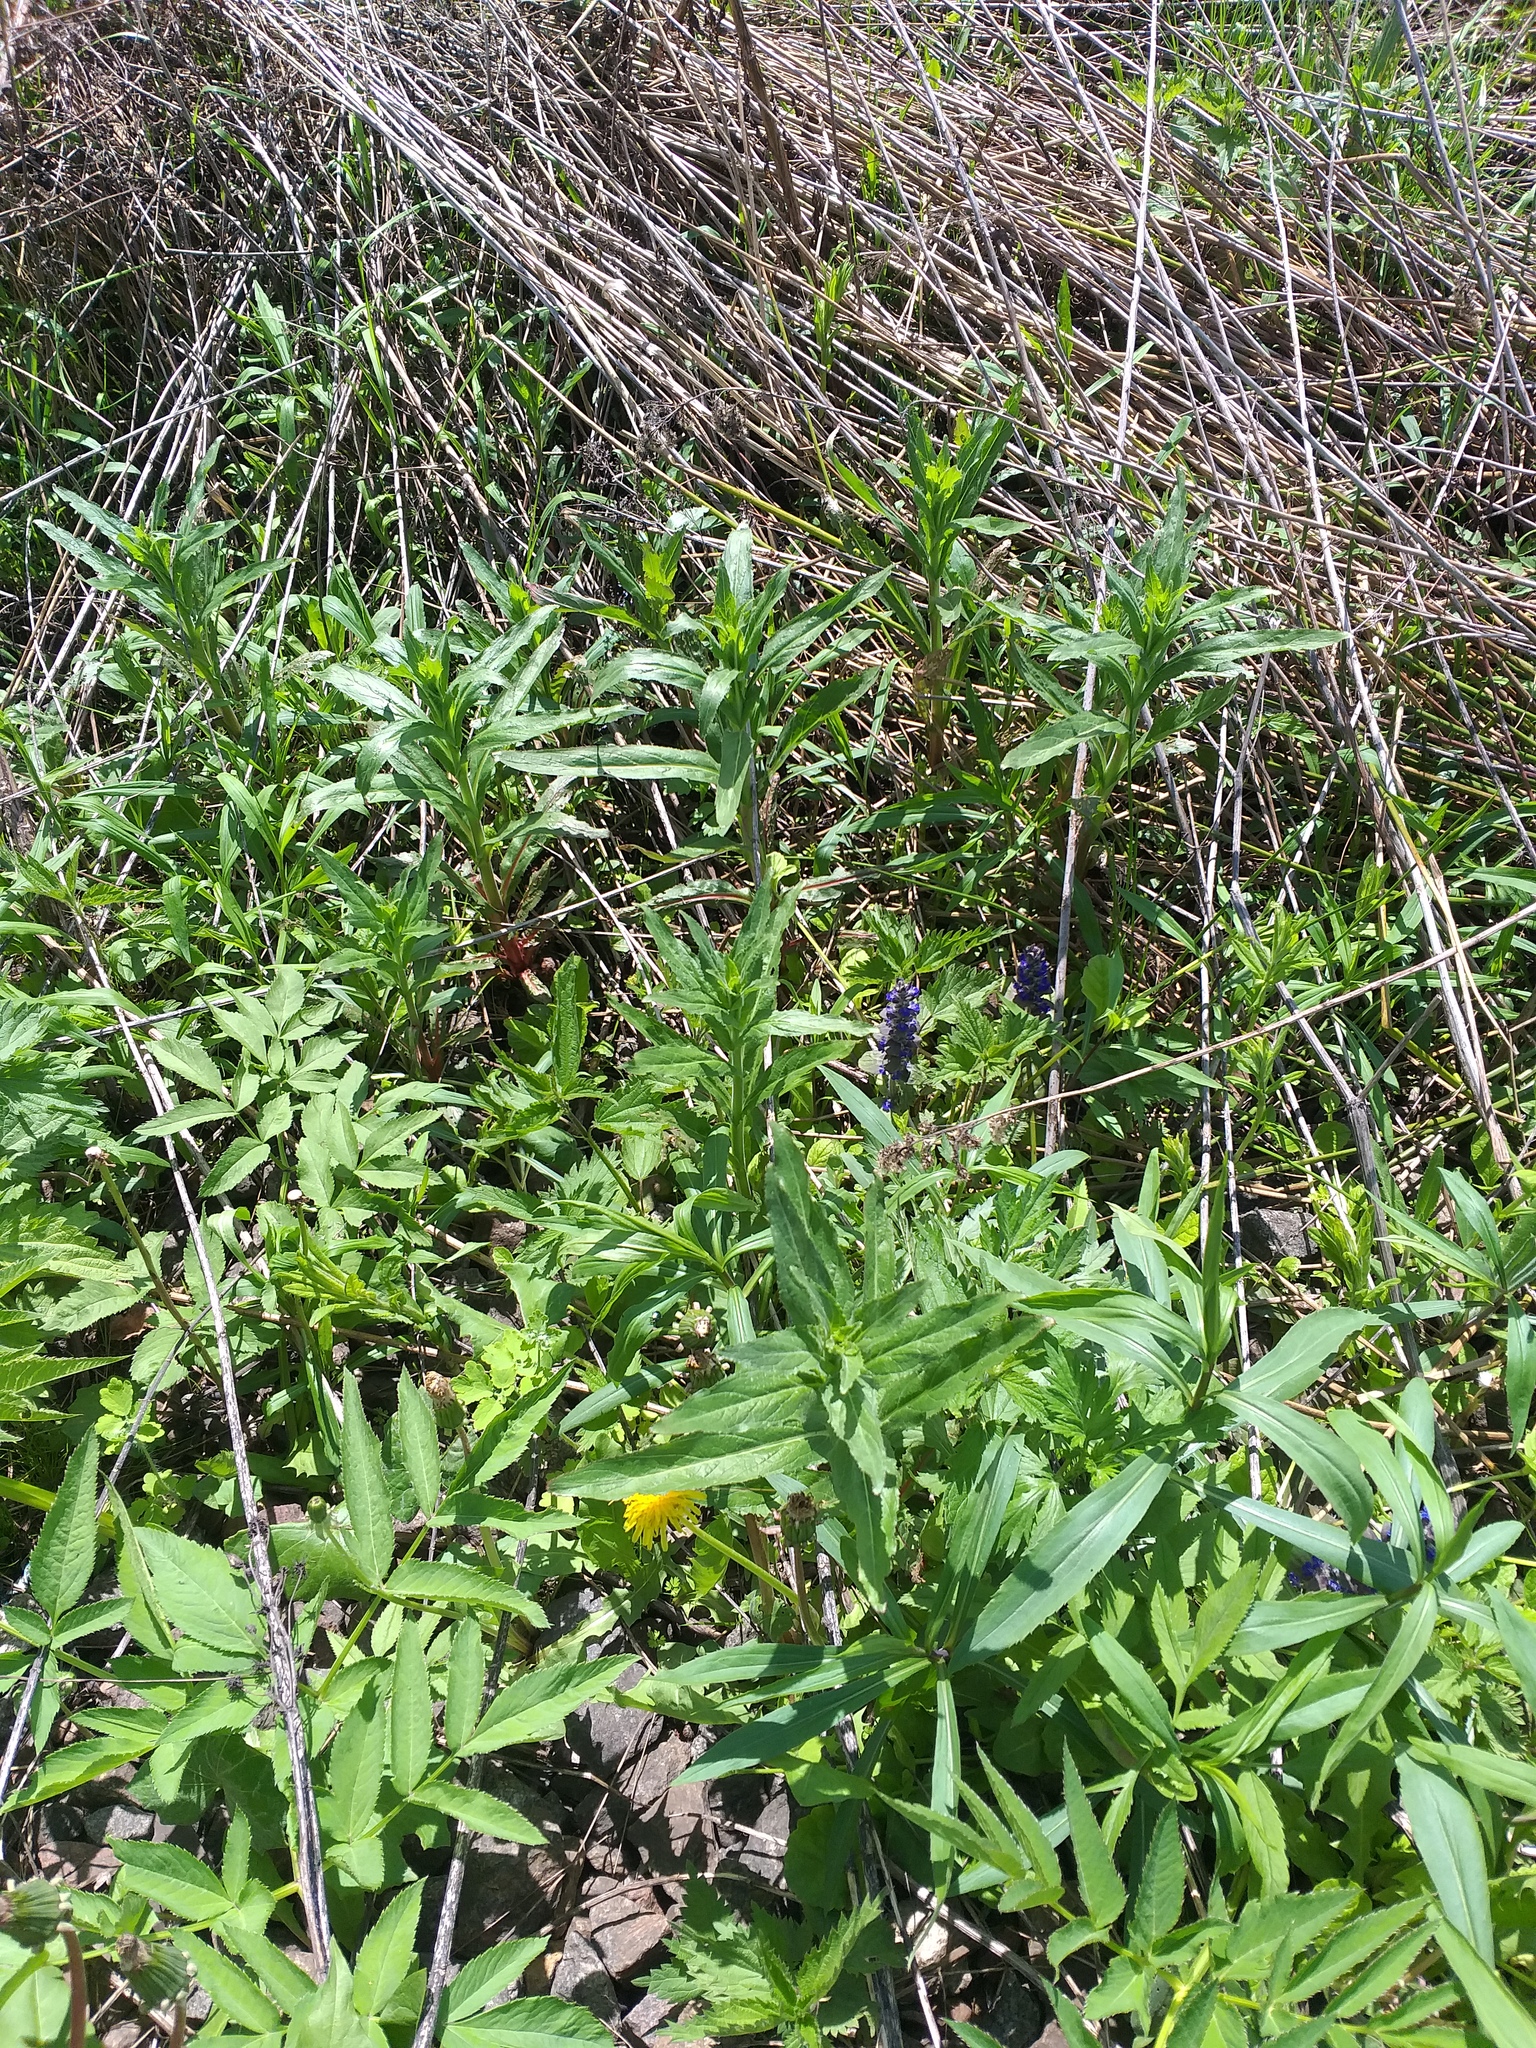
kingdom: Plantae
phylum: Tracheophyta
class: Magnoliopsida
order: Myrtales
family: Onagraceae
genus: Epilobium
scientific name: Epilobium hirsutum
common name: Great willowherb
